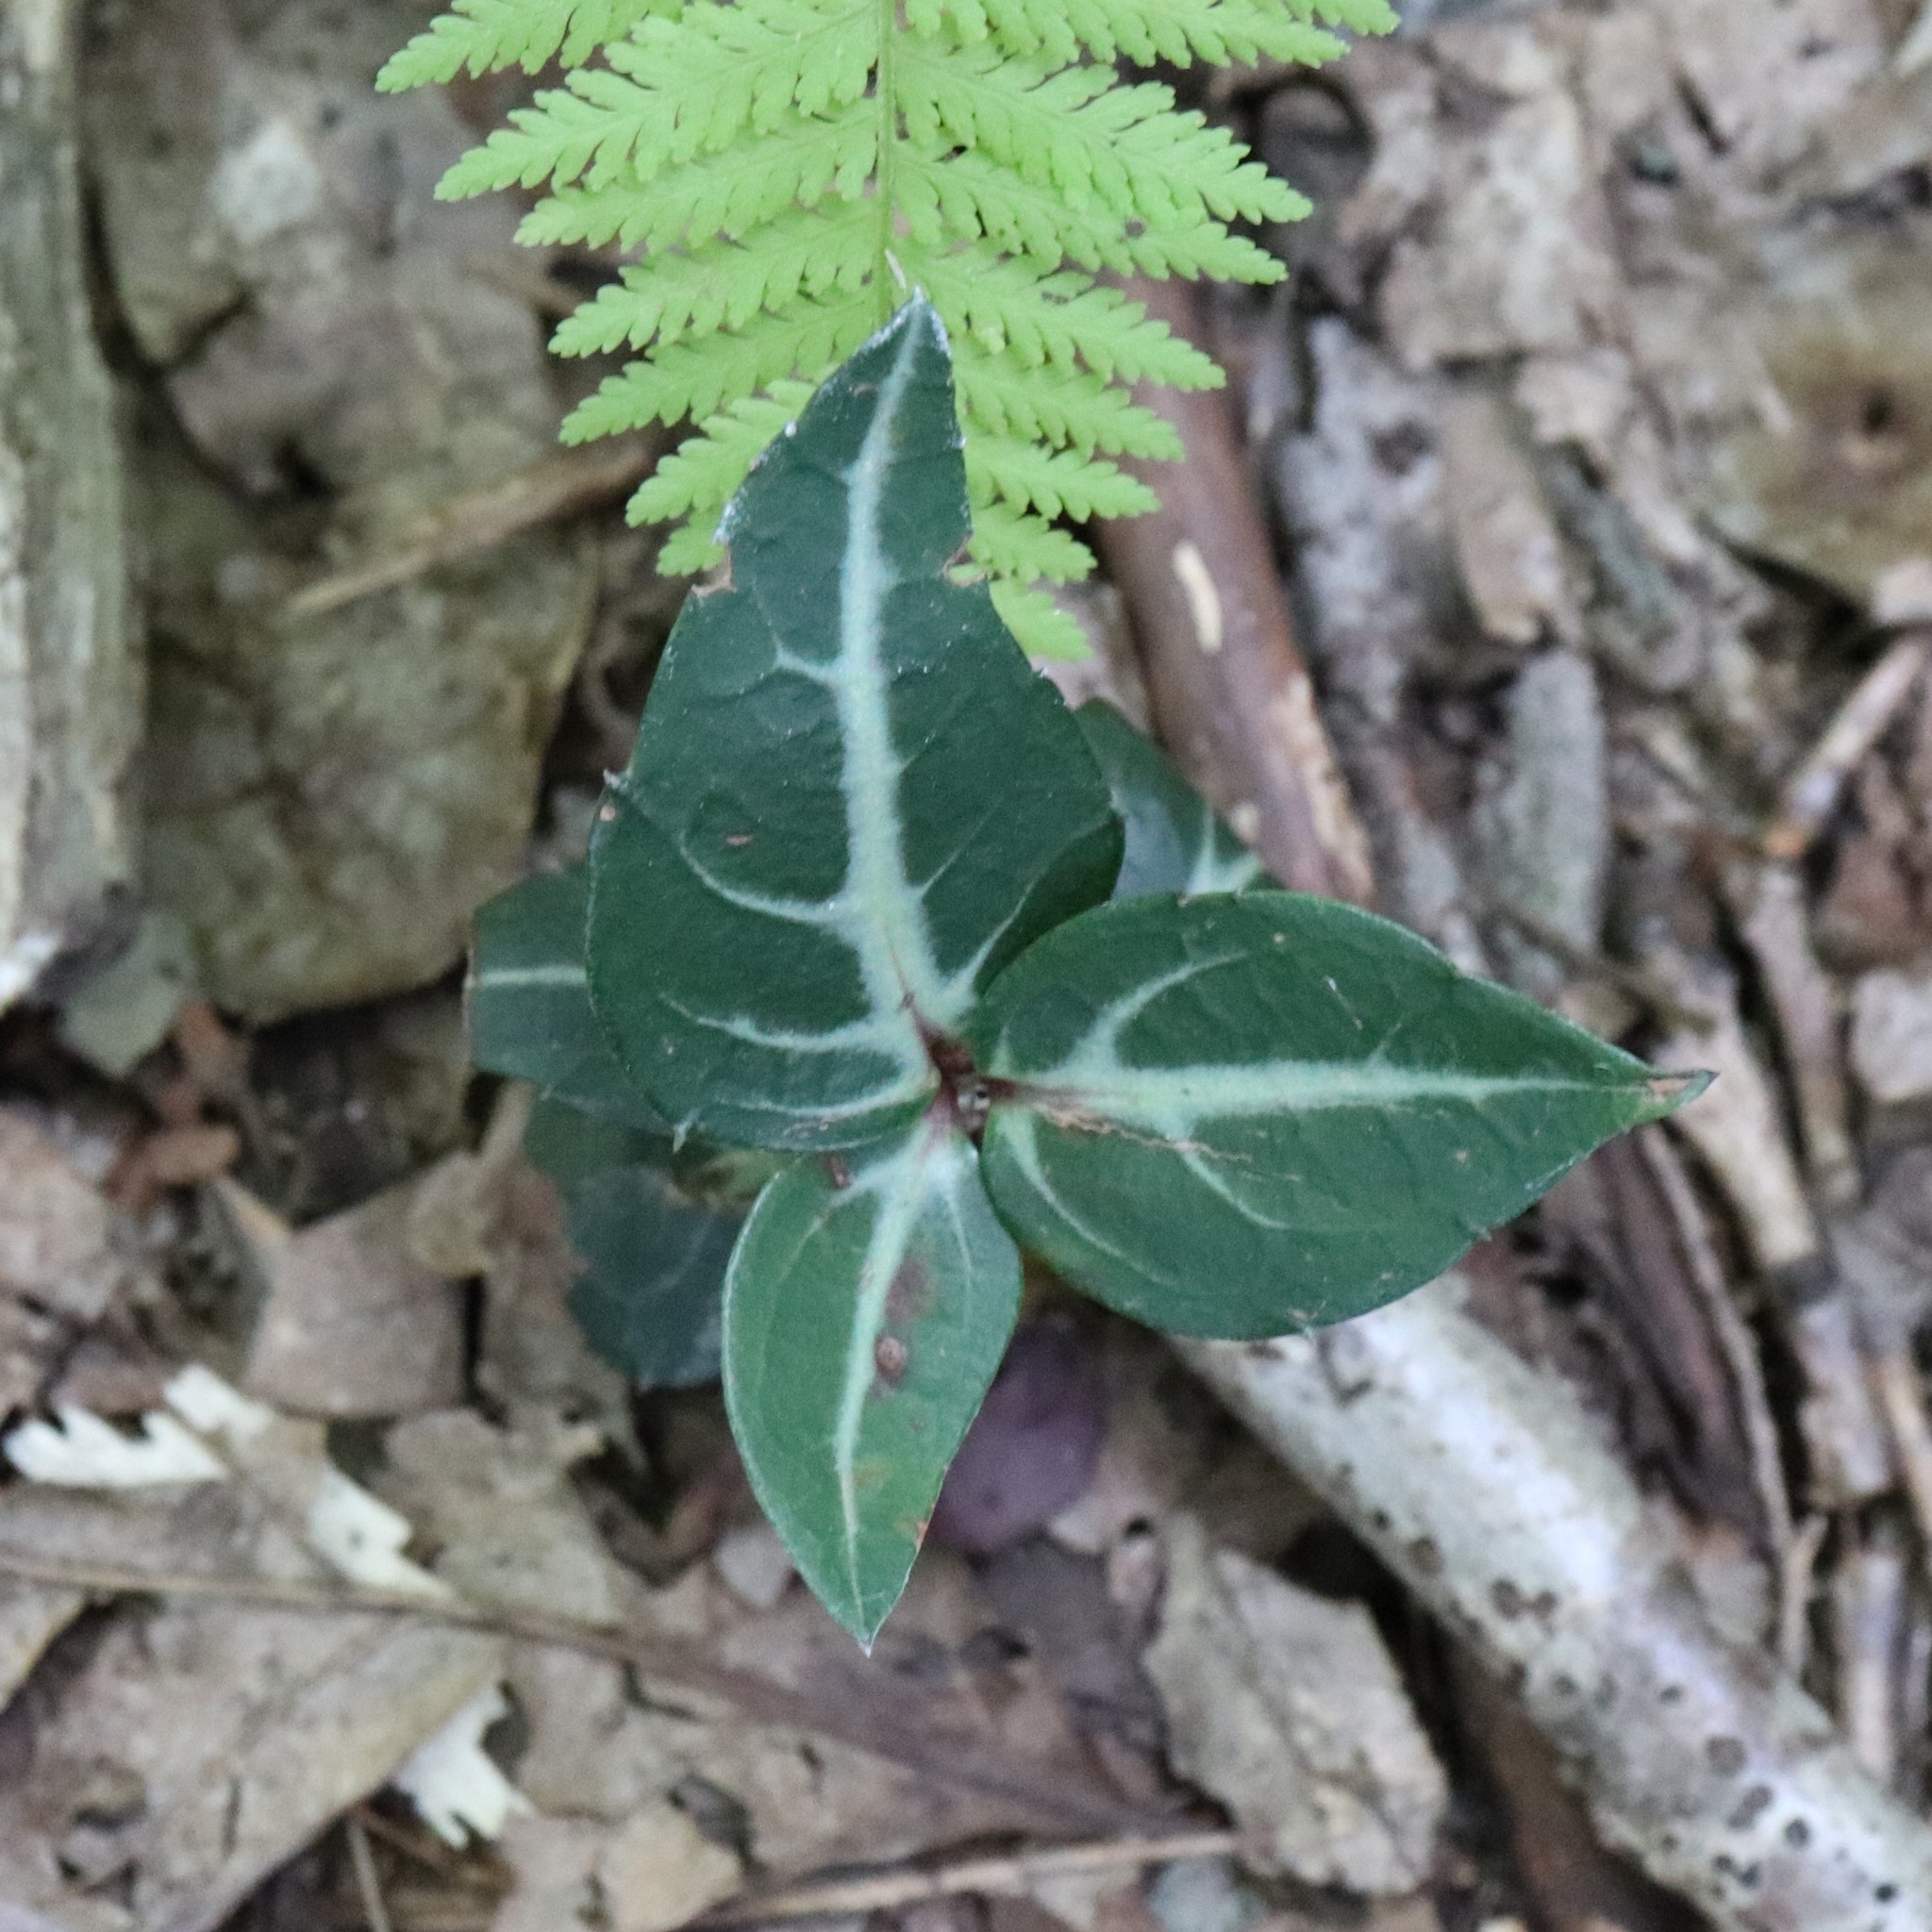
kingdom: Plantae
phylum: Tracheophyta
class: Magnoliopsida
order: Ericales
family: Ericaceae
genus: Chimaphila
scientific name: Chimaphila maculata
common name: Spotted pipsissewa
